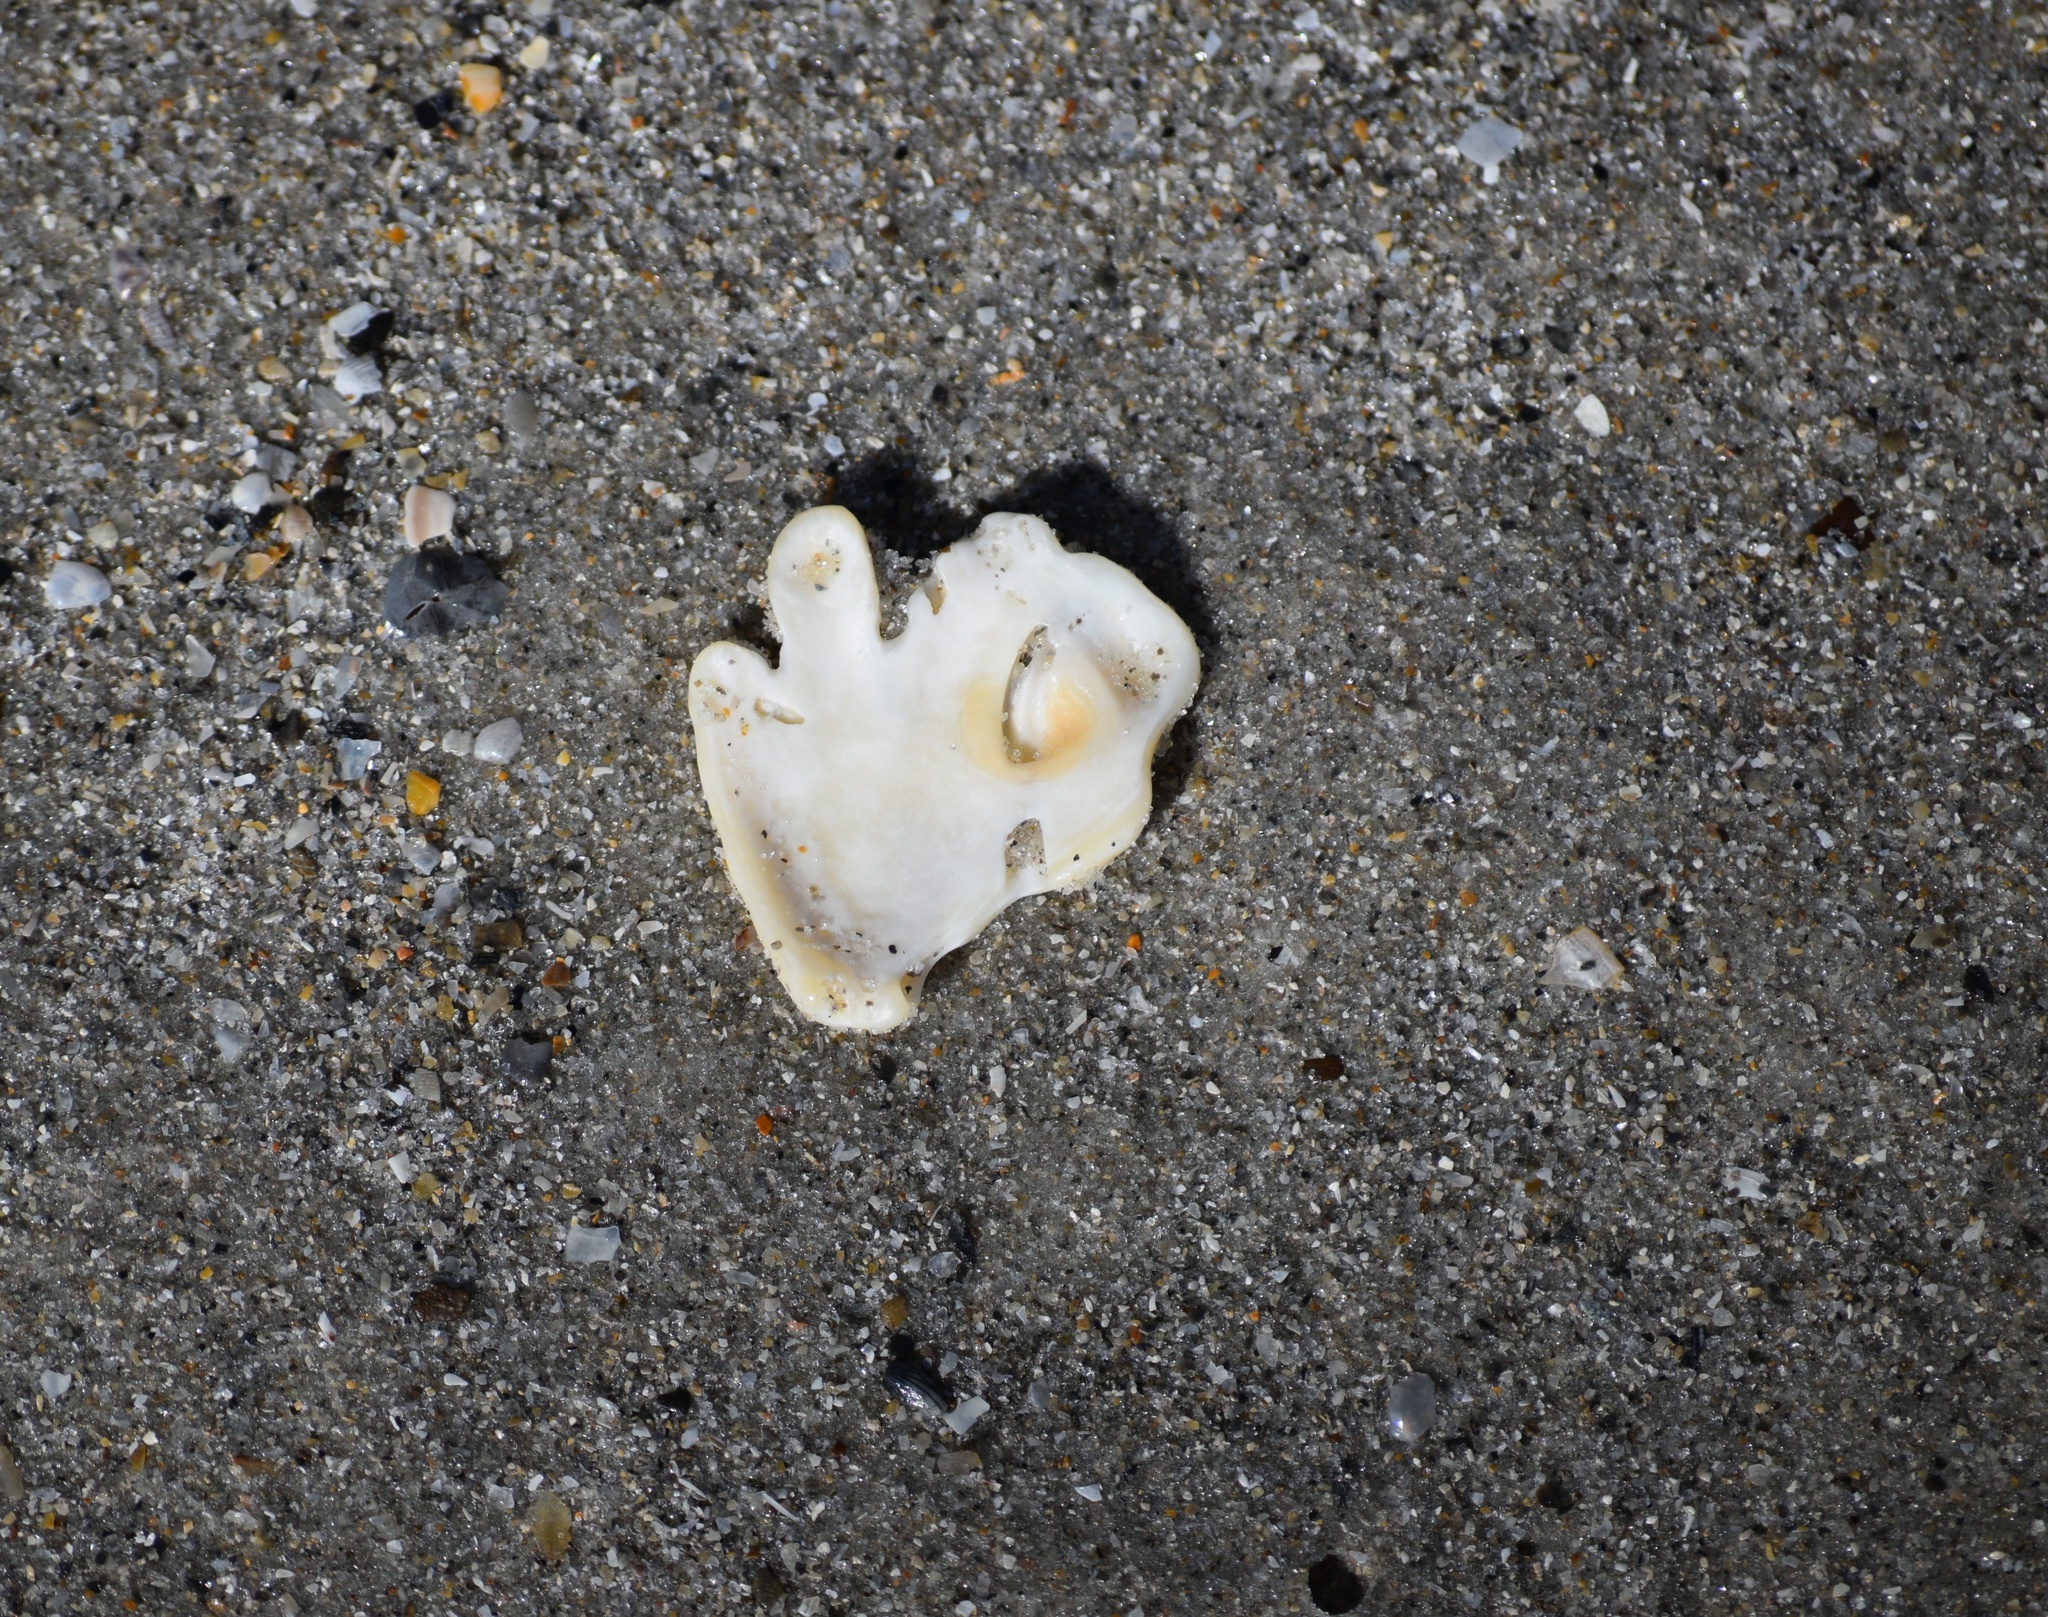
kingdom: Animalia
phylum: Mollusca
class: Bivalvia
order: Pectinida
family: Plicatulidae
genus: Plicatula
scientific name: Plicatula gibbosa
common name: Atlantic kitten's paw
